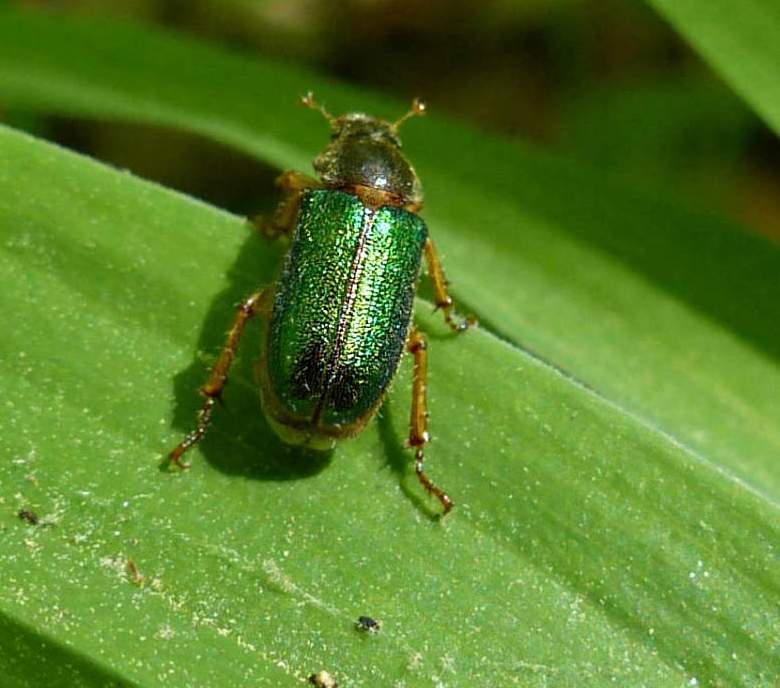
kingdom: Animalia
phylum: Arthropoda
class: Insecta
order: Coleoptera
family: Scarabaeidae
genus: Dichelonyx
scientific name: Dichelonyx canadensis
